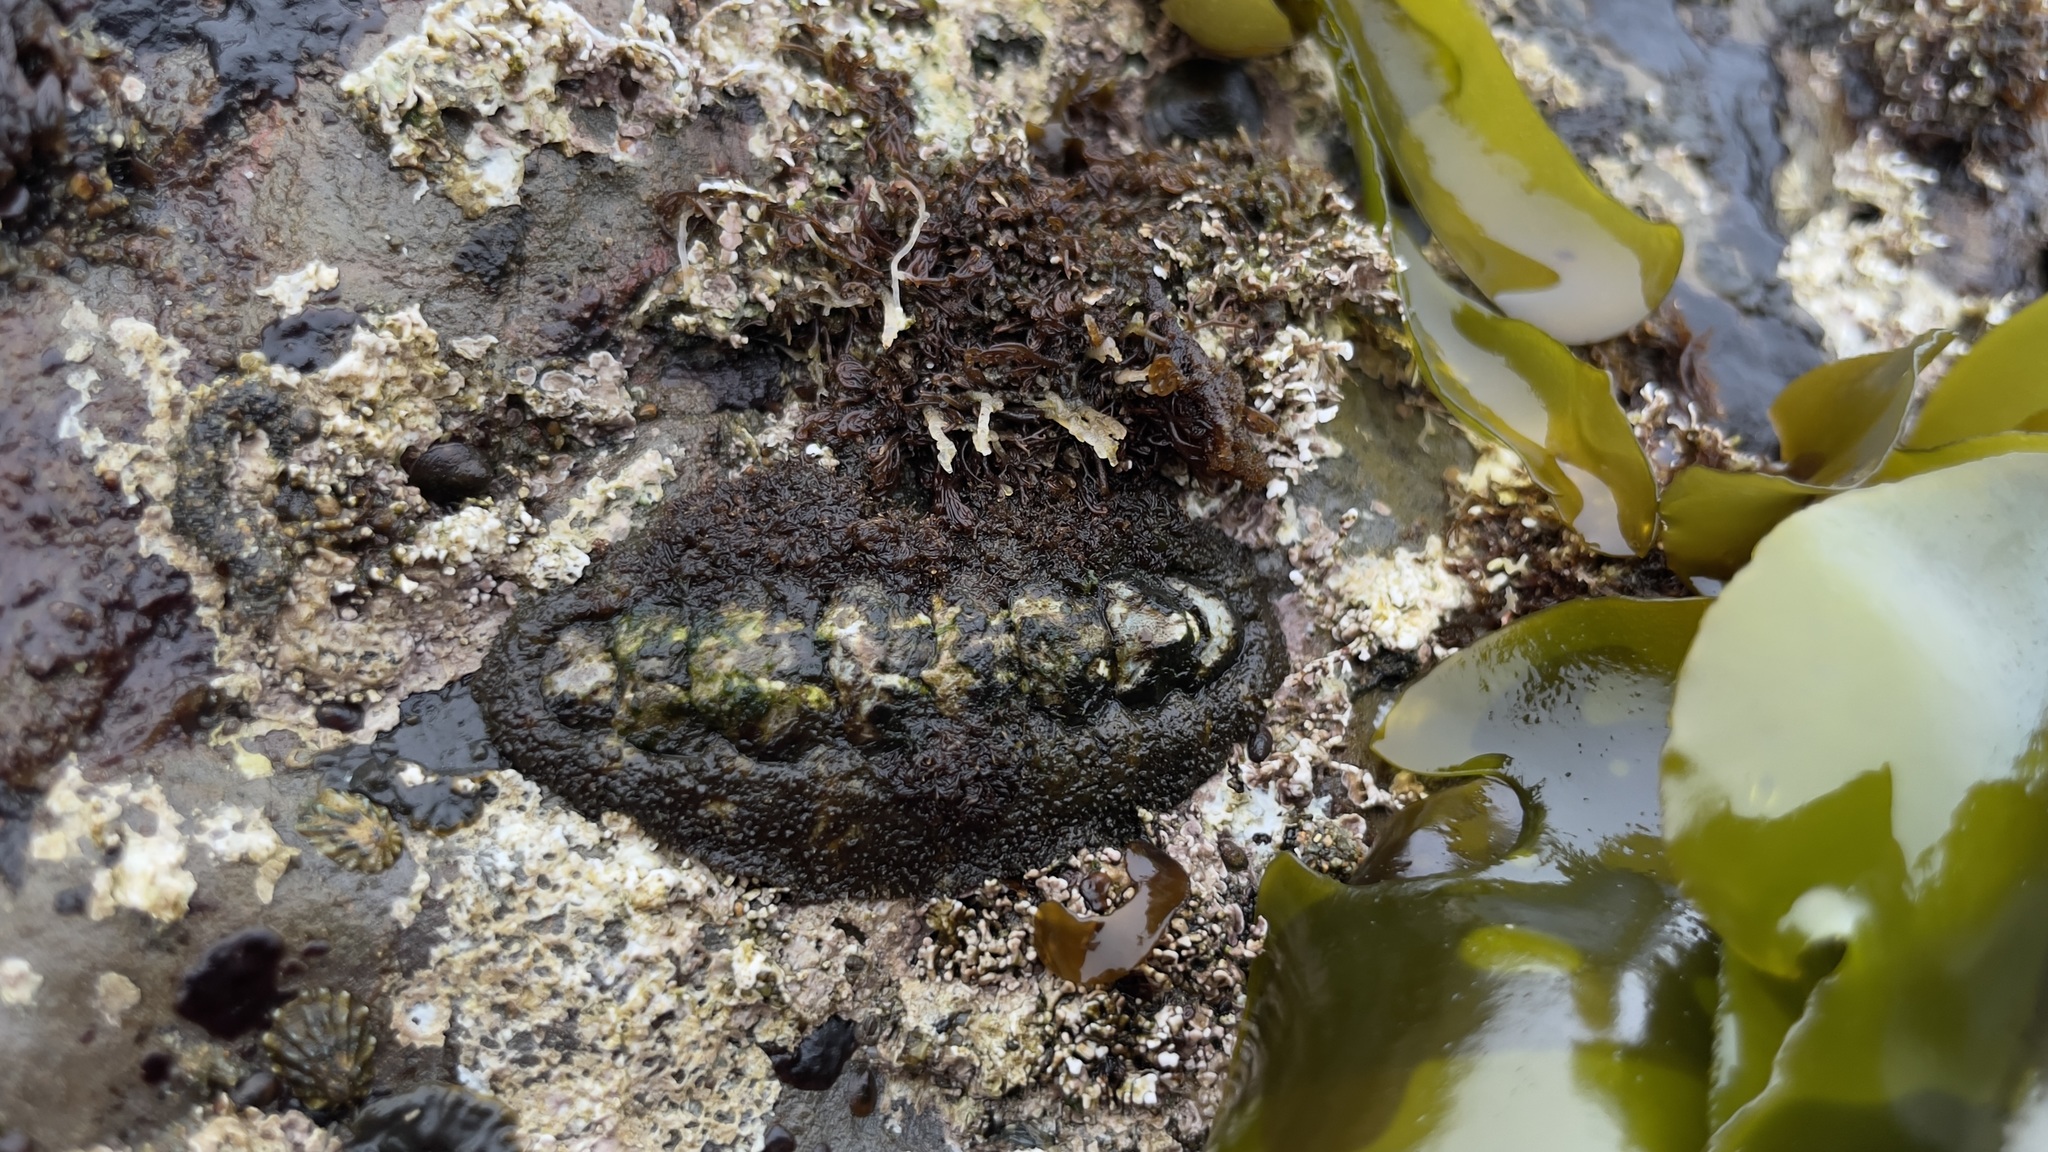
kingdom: Animalia
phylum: Mollusca
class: Polyplacophora
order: Chitonida
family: Tonicellidae
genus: Nuttallina
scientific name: Nuttallina californica
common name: California nuttall chiton
